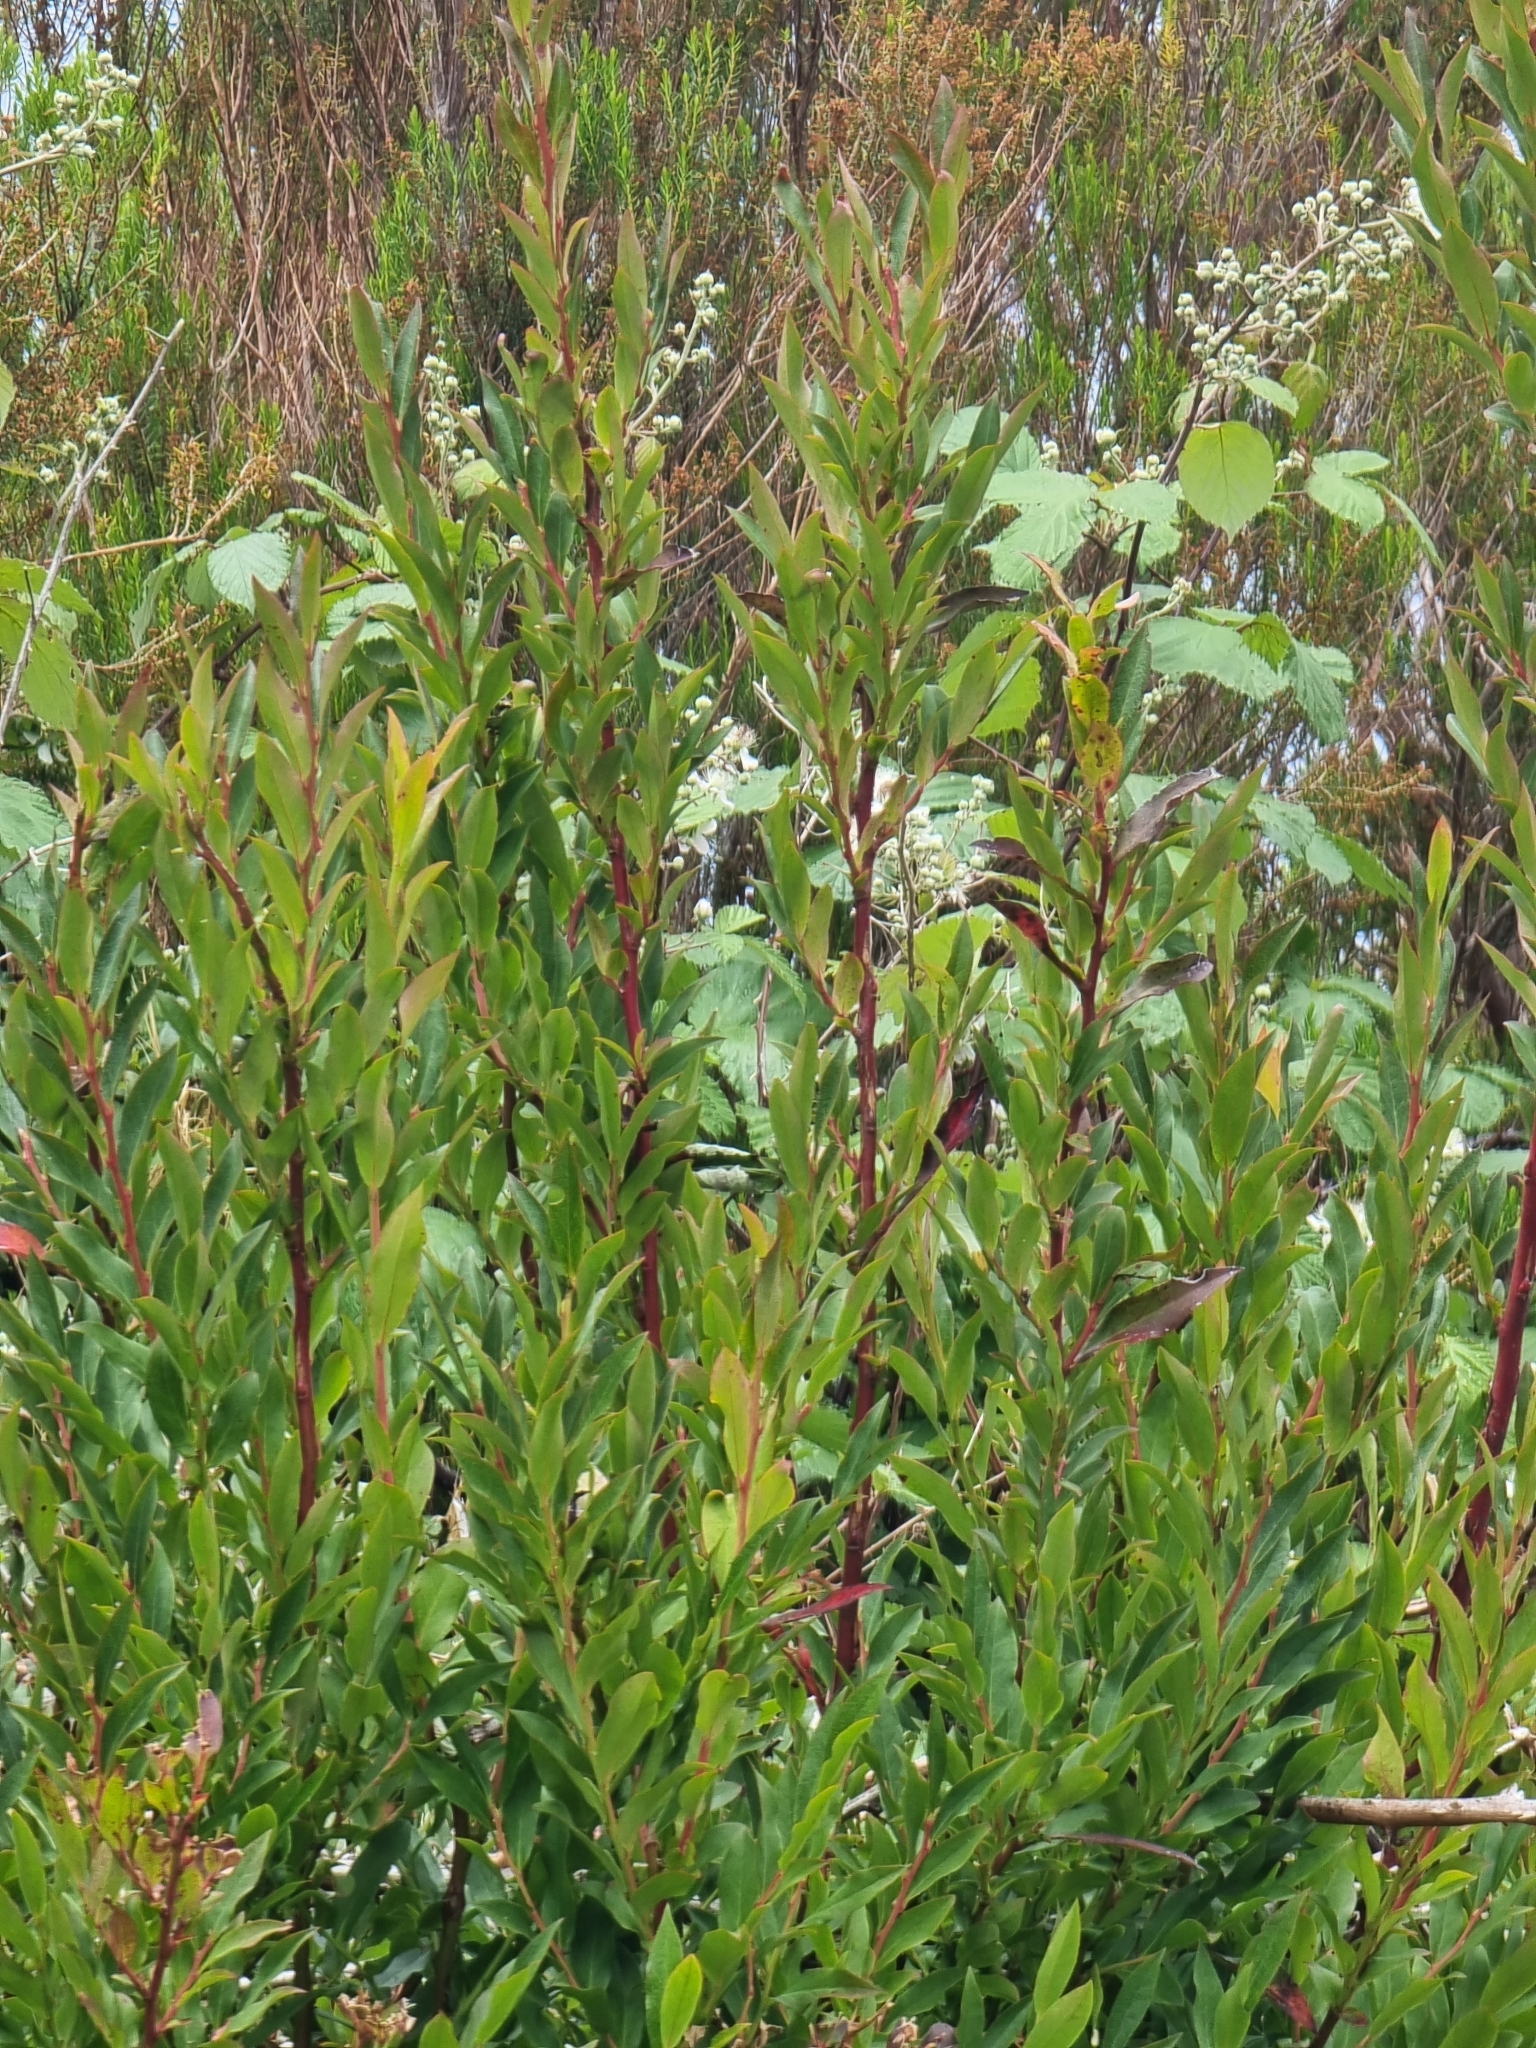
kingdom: Plantae
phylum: Tracheophyta
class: Magnoliopsida
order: Ericales
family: Ericaceae
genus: Vaccinium
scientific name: Vaccinium padifolium
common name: Madeiran blueberry
